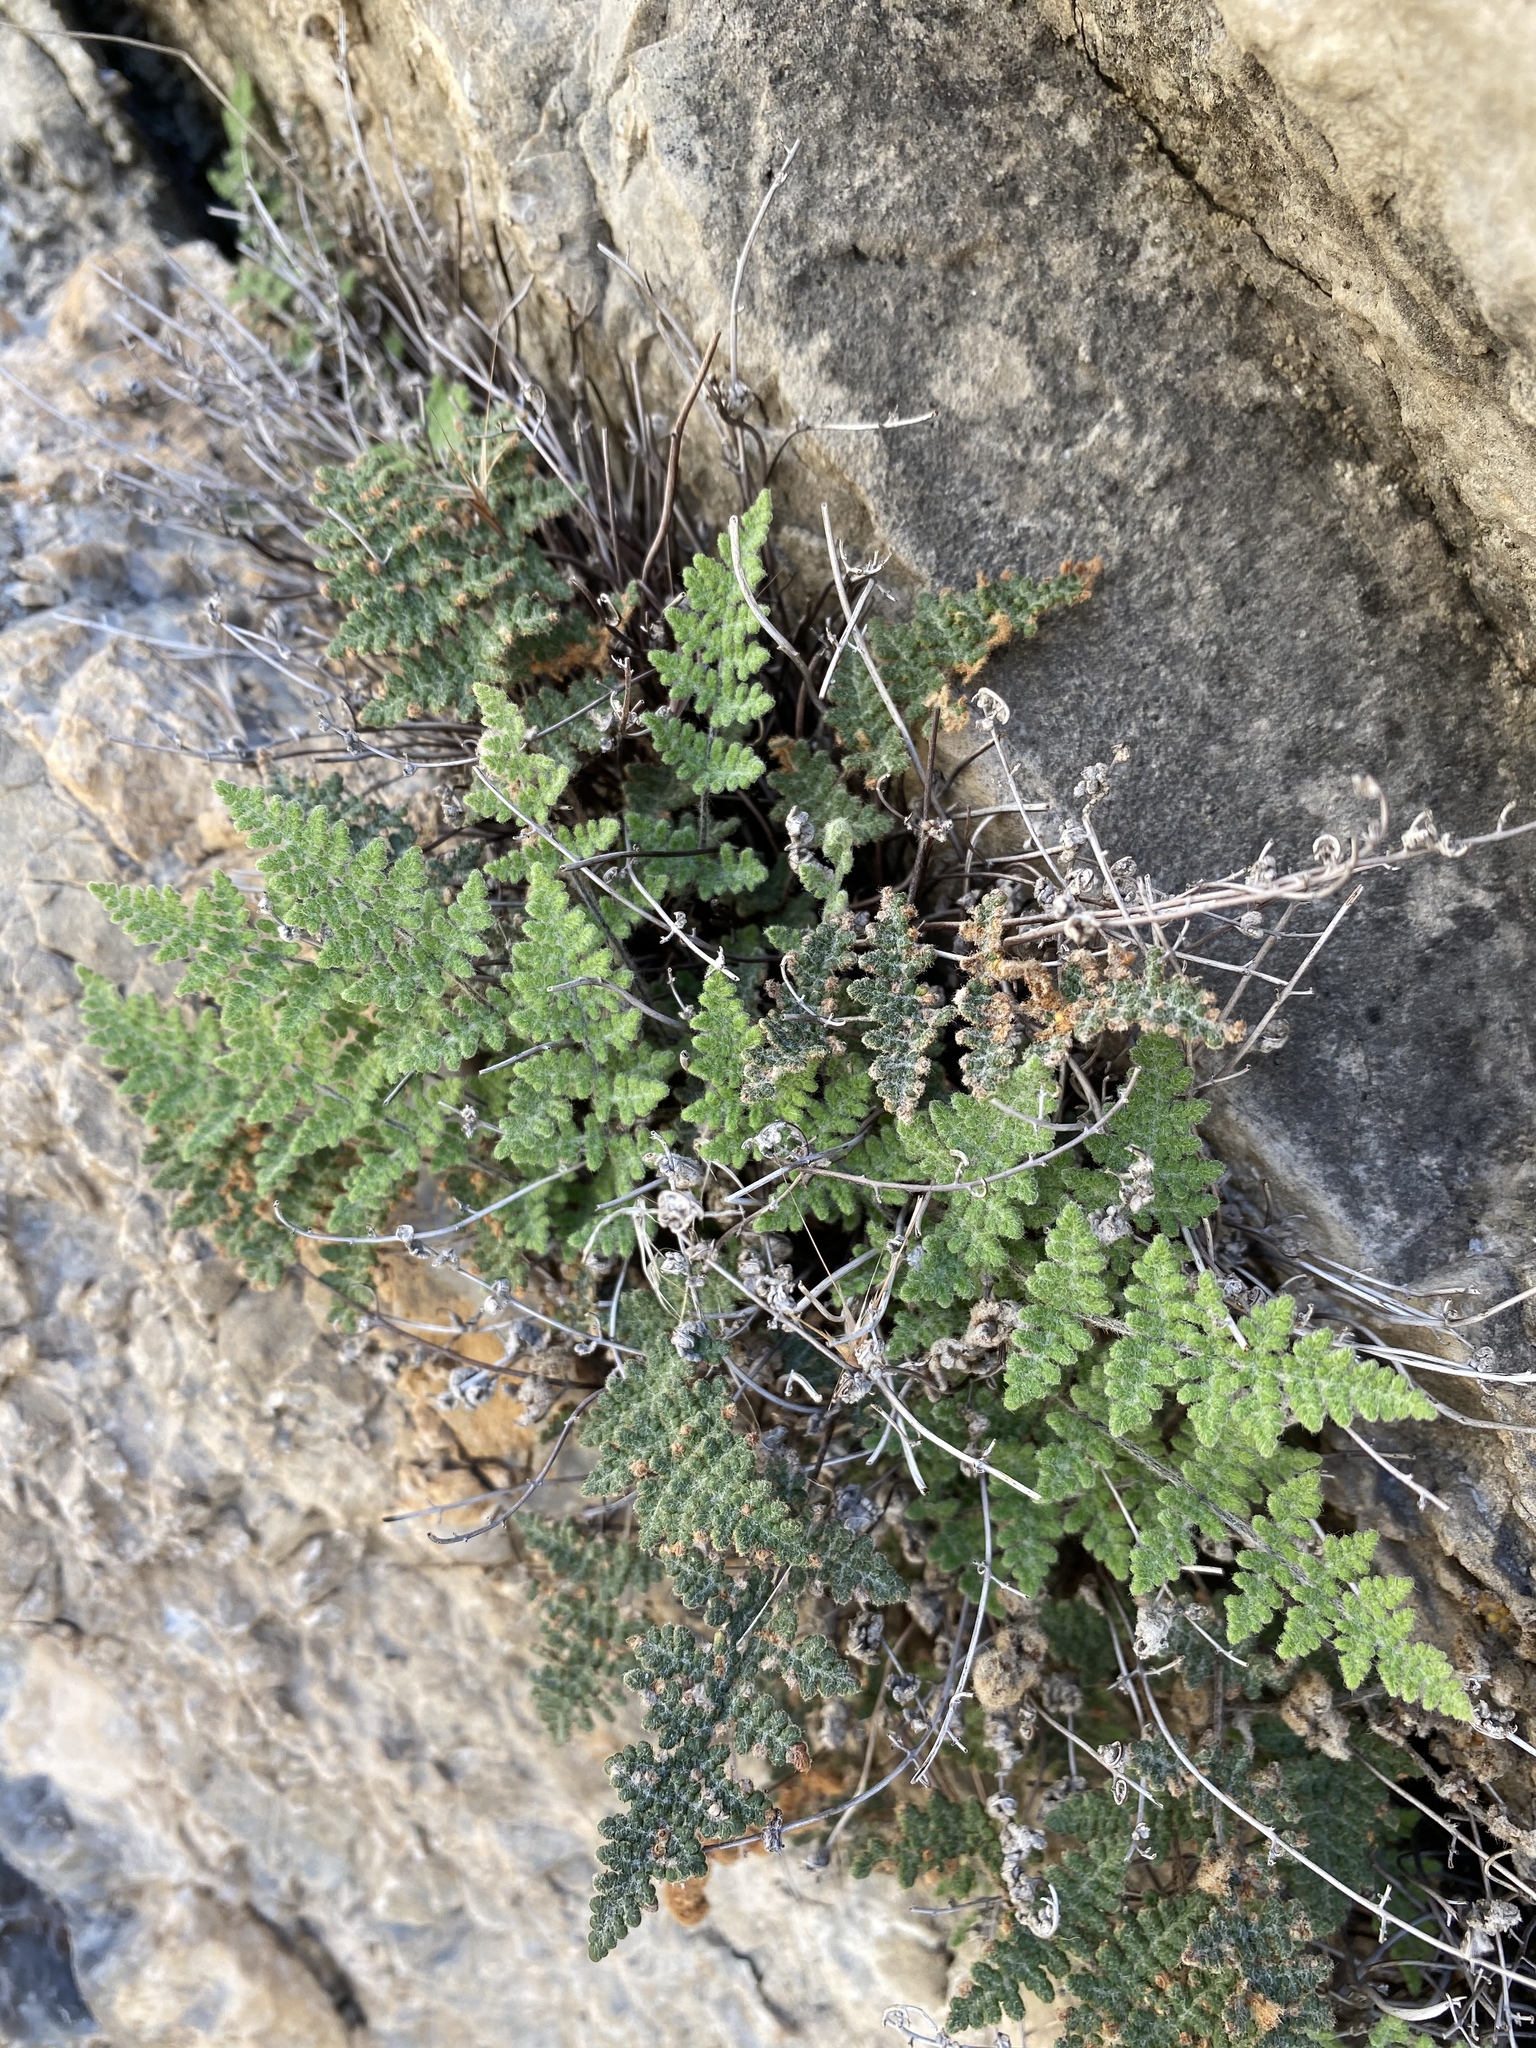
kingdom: Plantae
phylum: Tracheophyta
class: Polypodiopsida
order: Polypodiales
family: Pteridaceae
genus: Myriopteris
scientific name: Myriopteris gracilis
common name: Fee's lip fern
